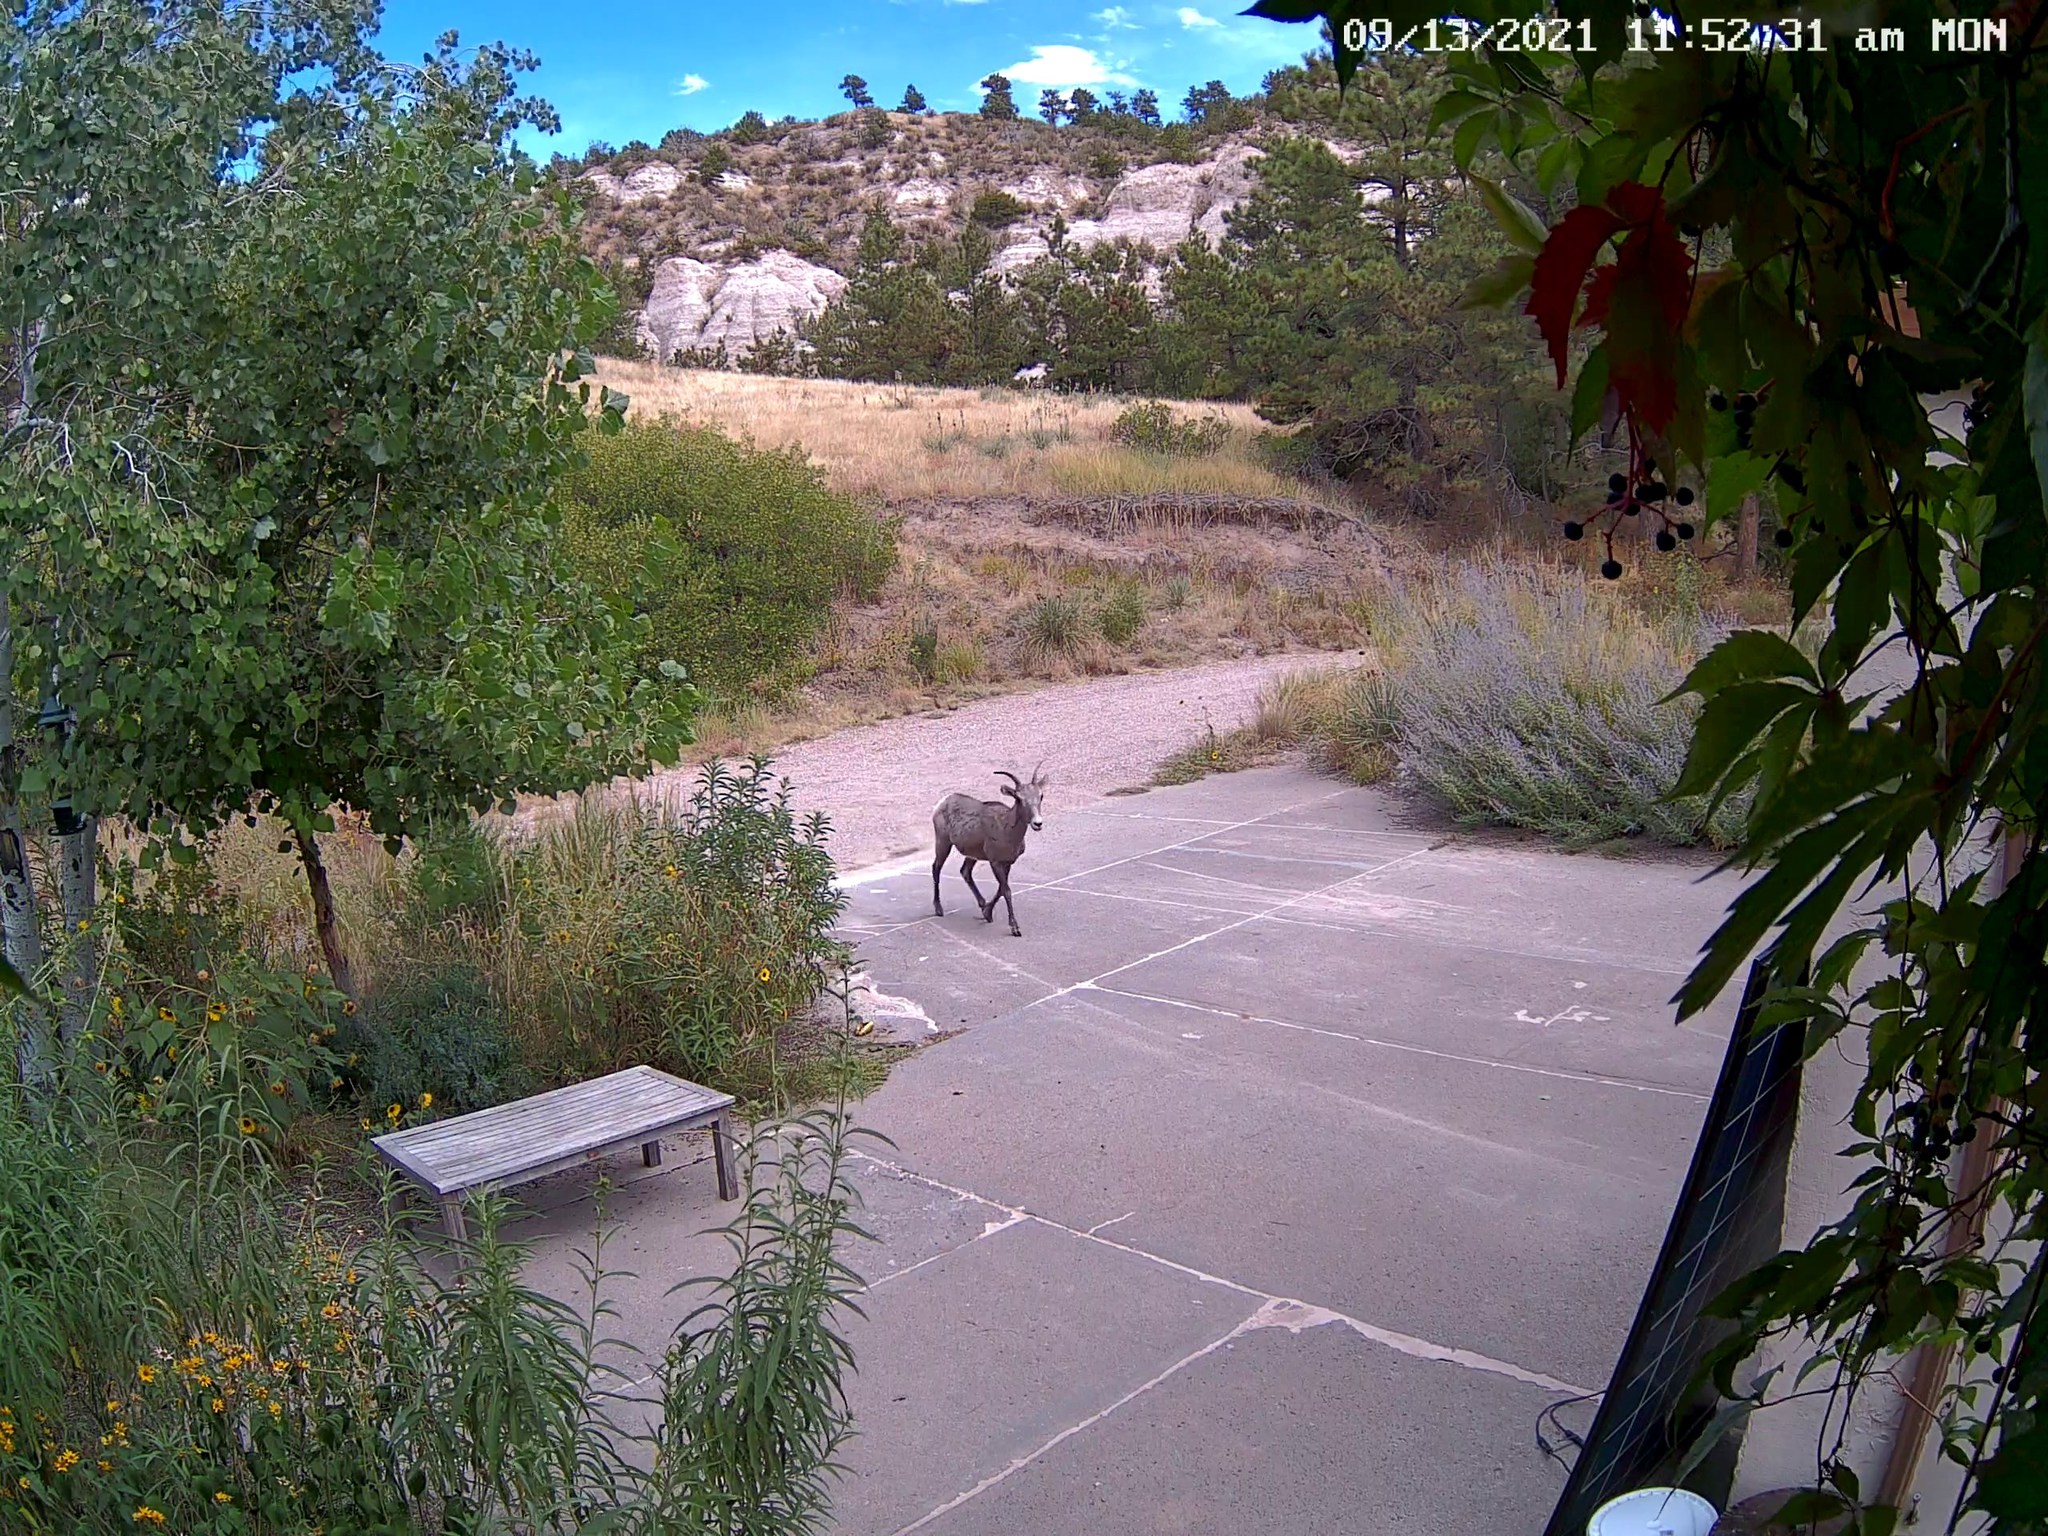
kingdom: Animalia
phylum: Chordata
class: Mammalia
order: Artiodactyla
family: Bovidae
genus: Ovis
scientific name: Ovis canadensis
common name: Bighorn sheep
